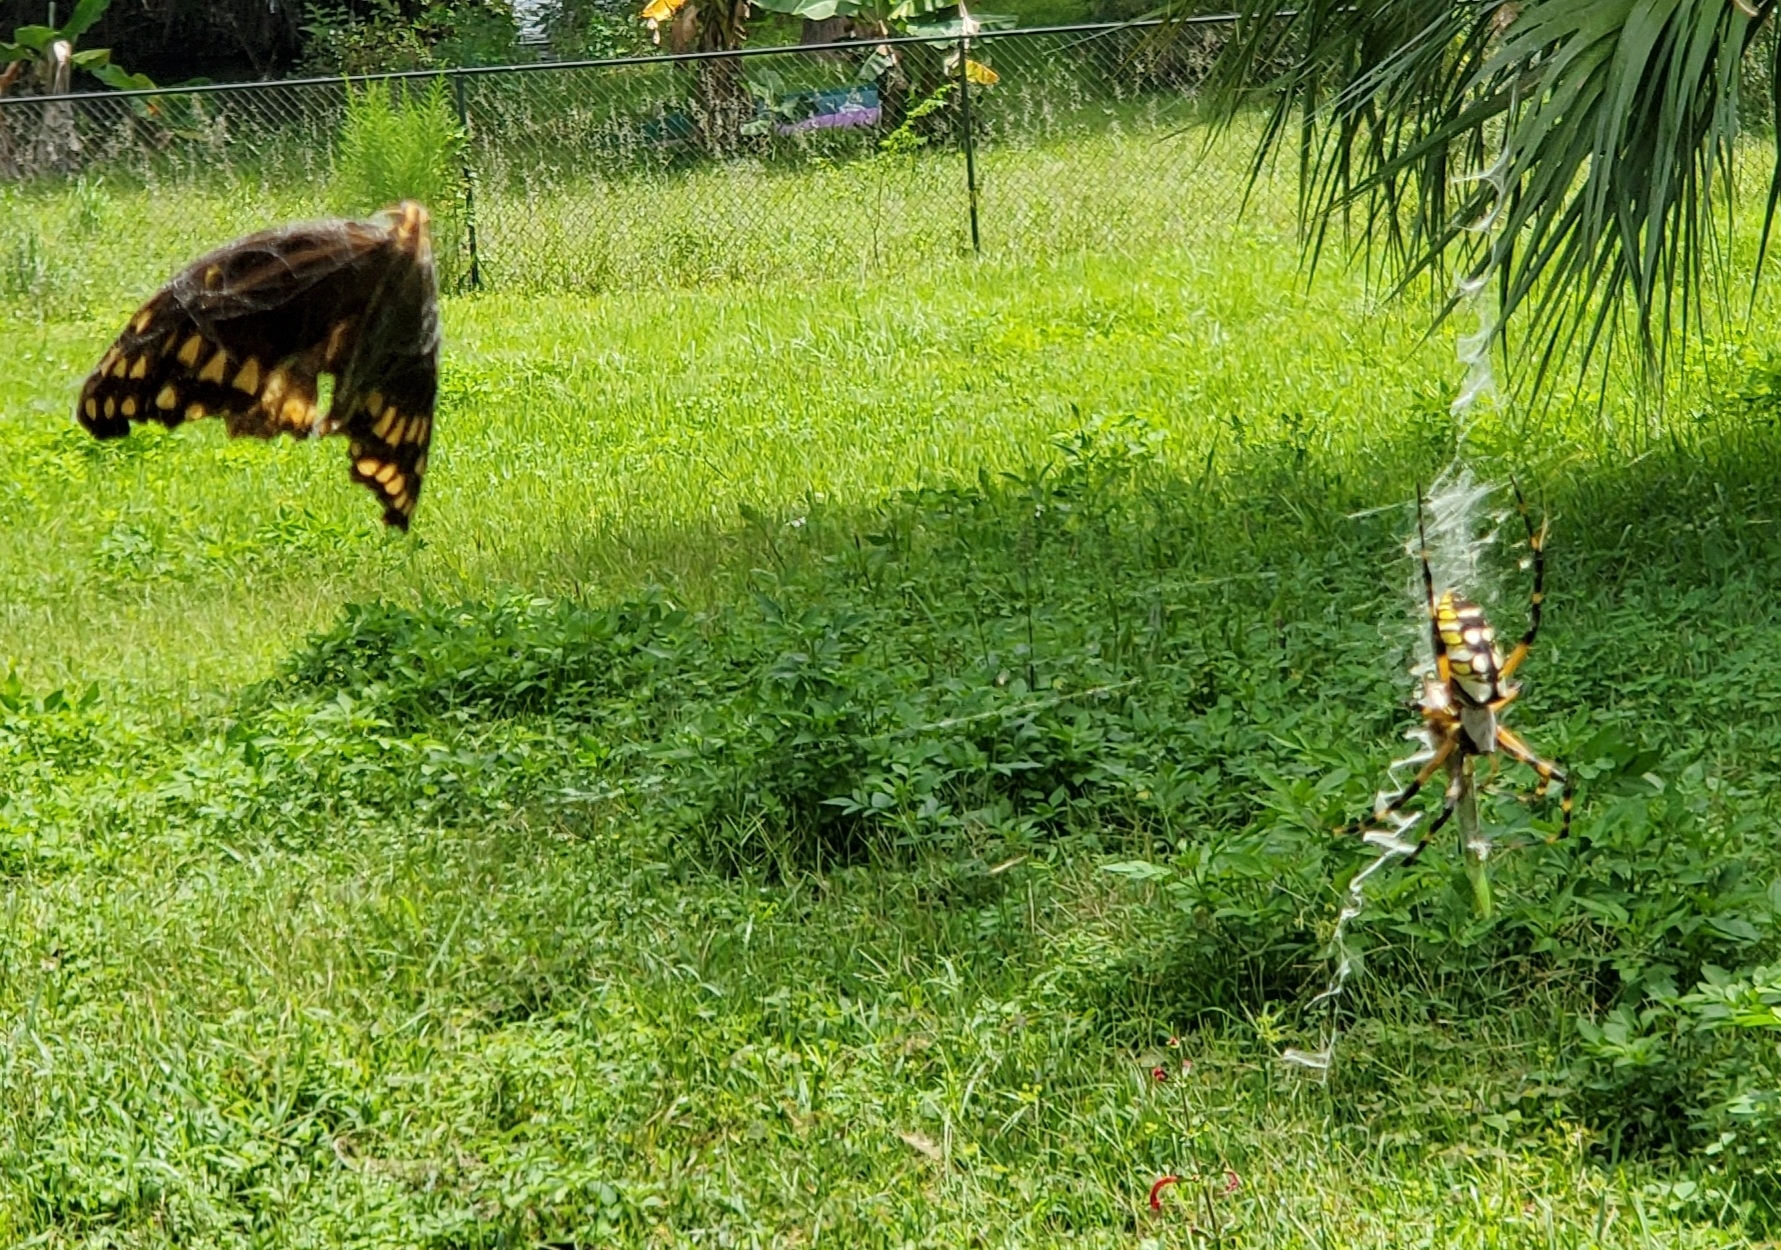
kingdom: Animalia
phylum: Arthropoda
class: Insecta
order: Lepidoptera
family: Papilionidae
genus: Papilio
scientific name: Papilio palamedes
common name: Palamedes swallowtail
